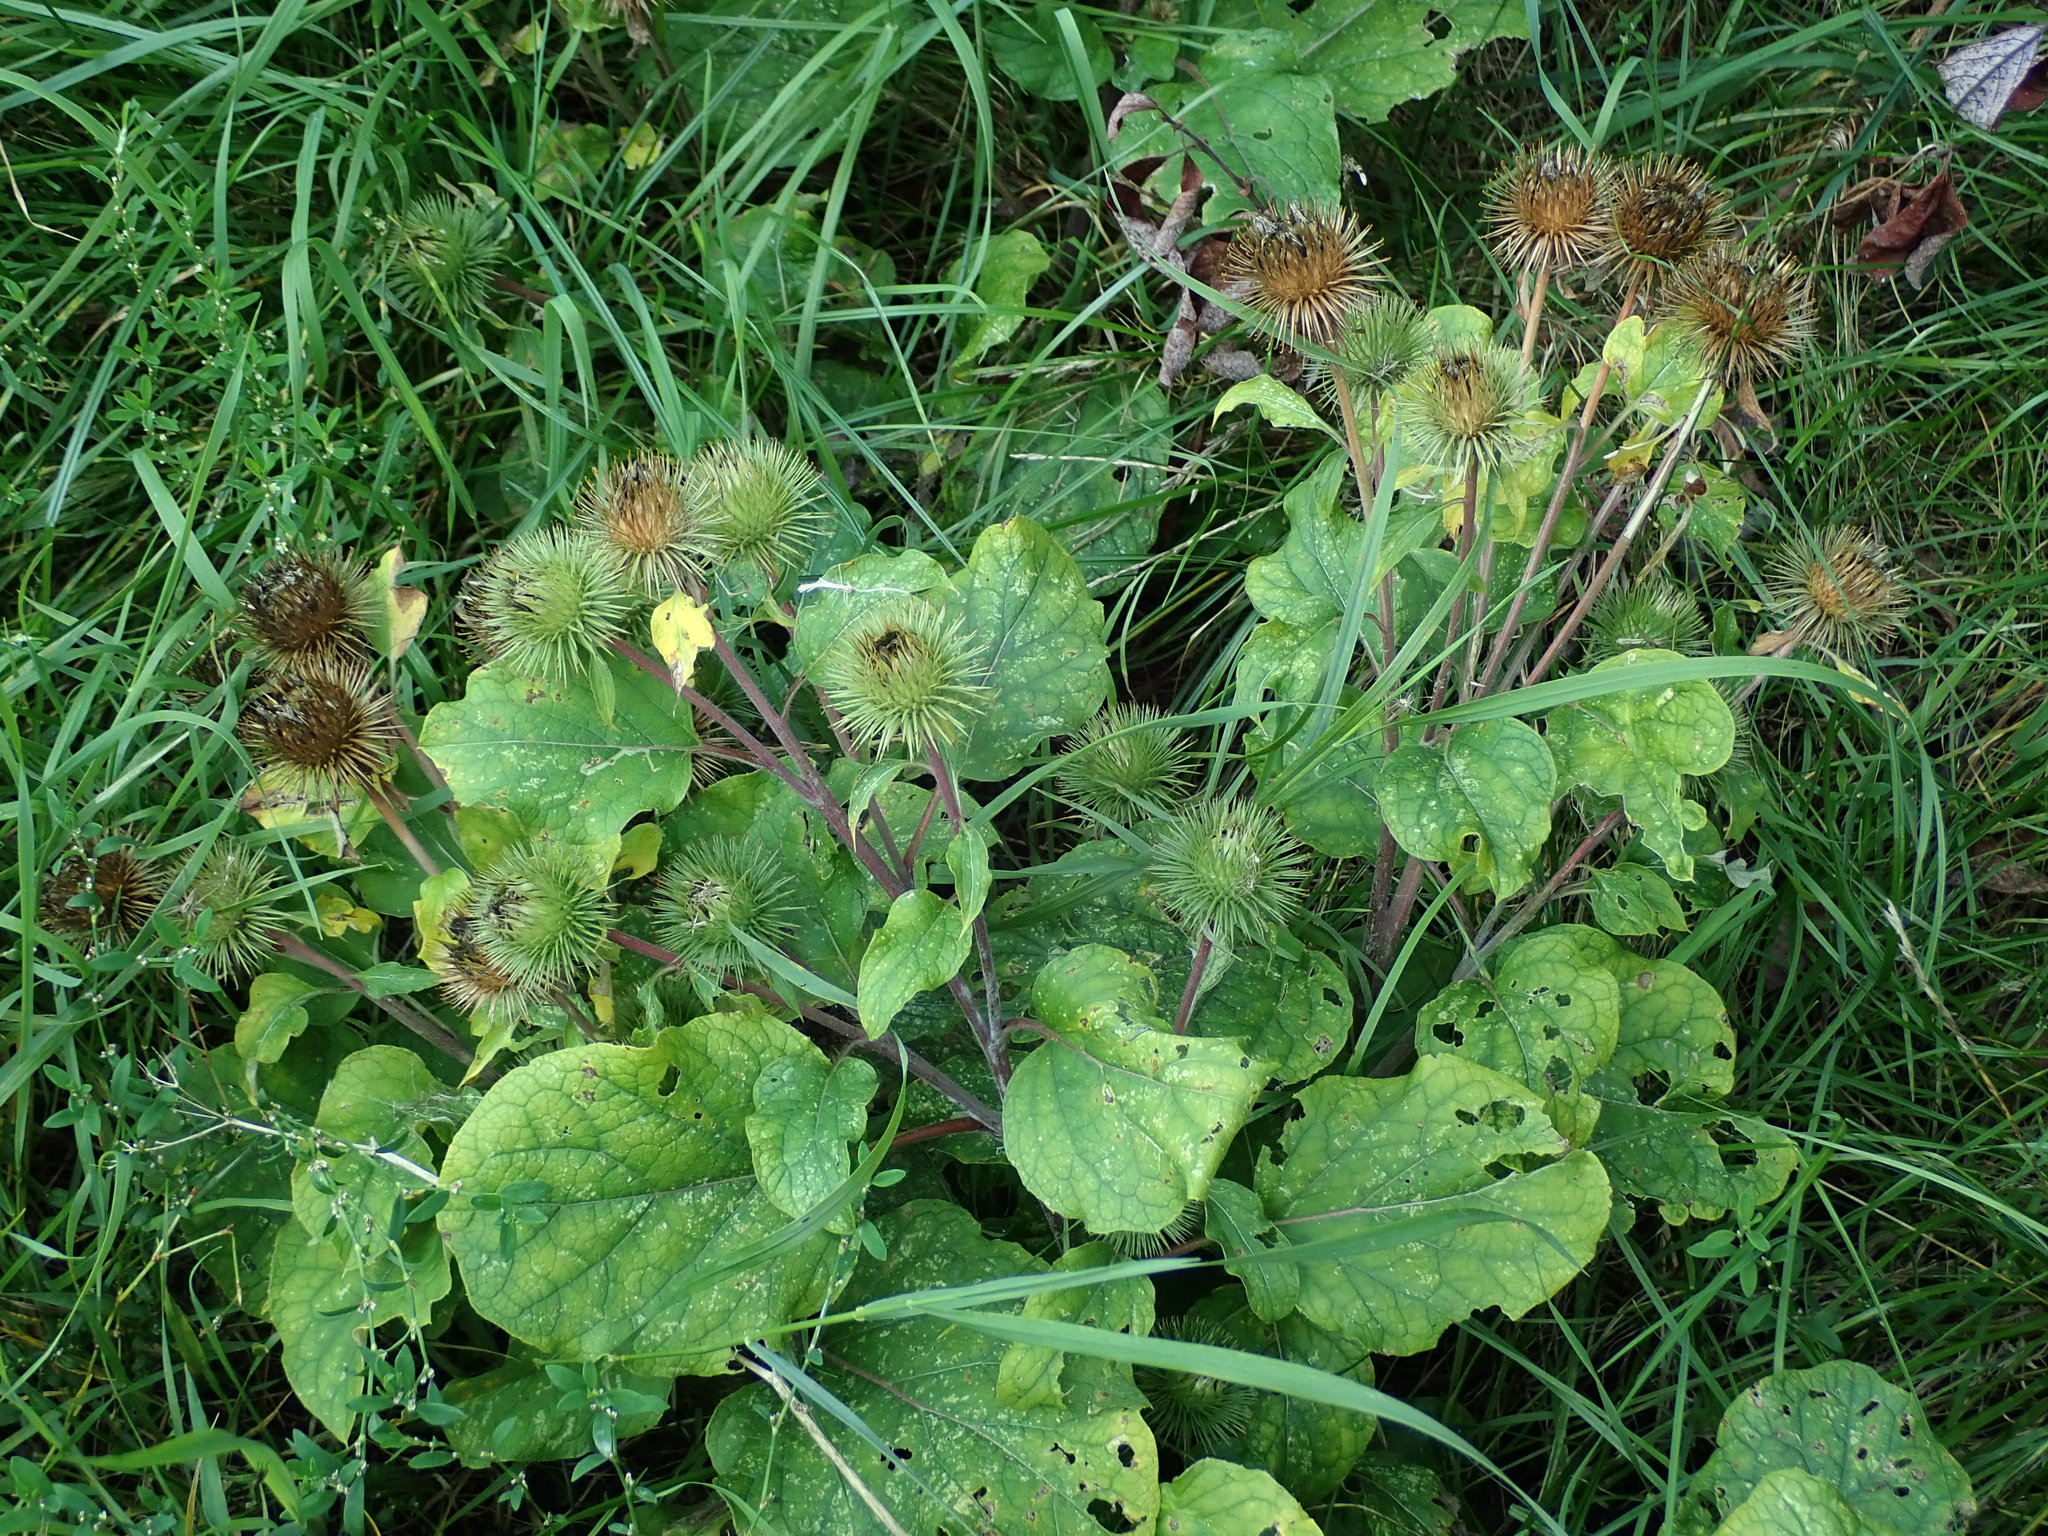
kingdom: Plantae
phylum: Tracheophyta
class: Magnoliopsida
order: Asterales
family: Asteraceae
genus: Arctium
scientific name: Arctium lappa
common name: Greater burdock
